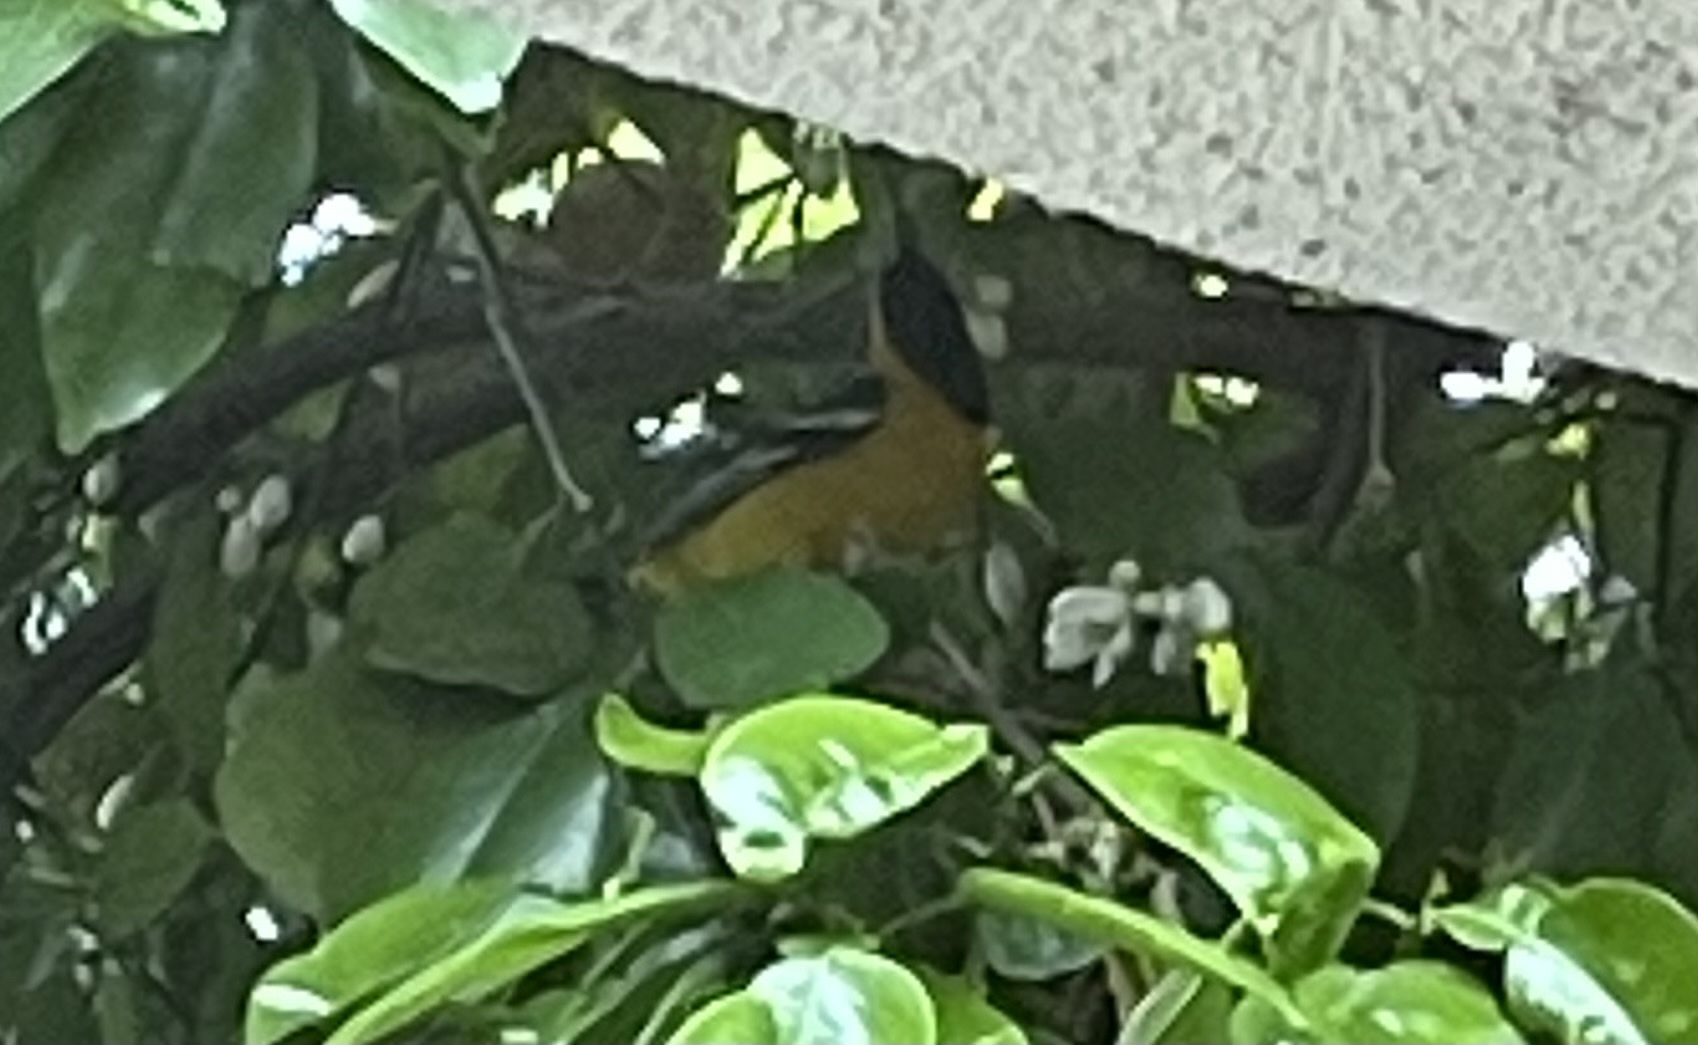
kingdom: Animalia
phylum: Chordata
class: Aves
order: Passeriformes
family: Icteridae
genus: Icterus
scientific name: Icterus cucullatus
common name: Hooded oriole
